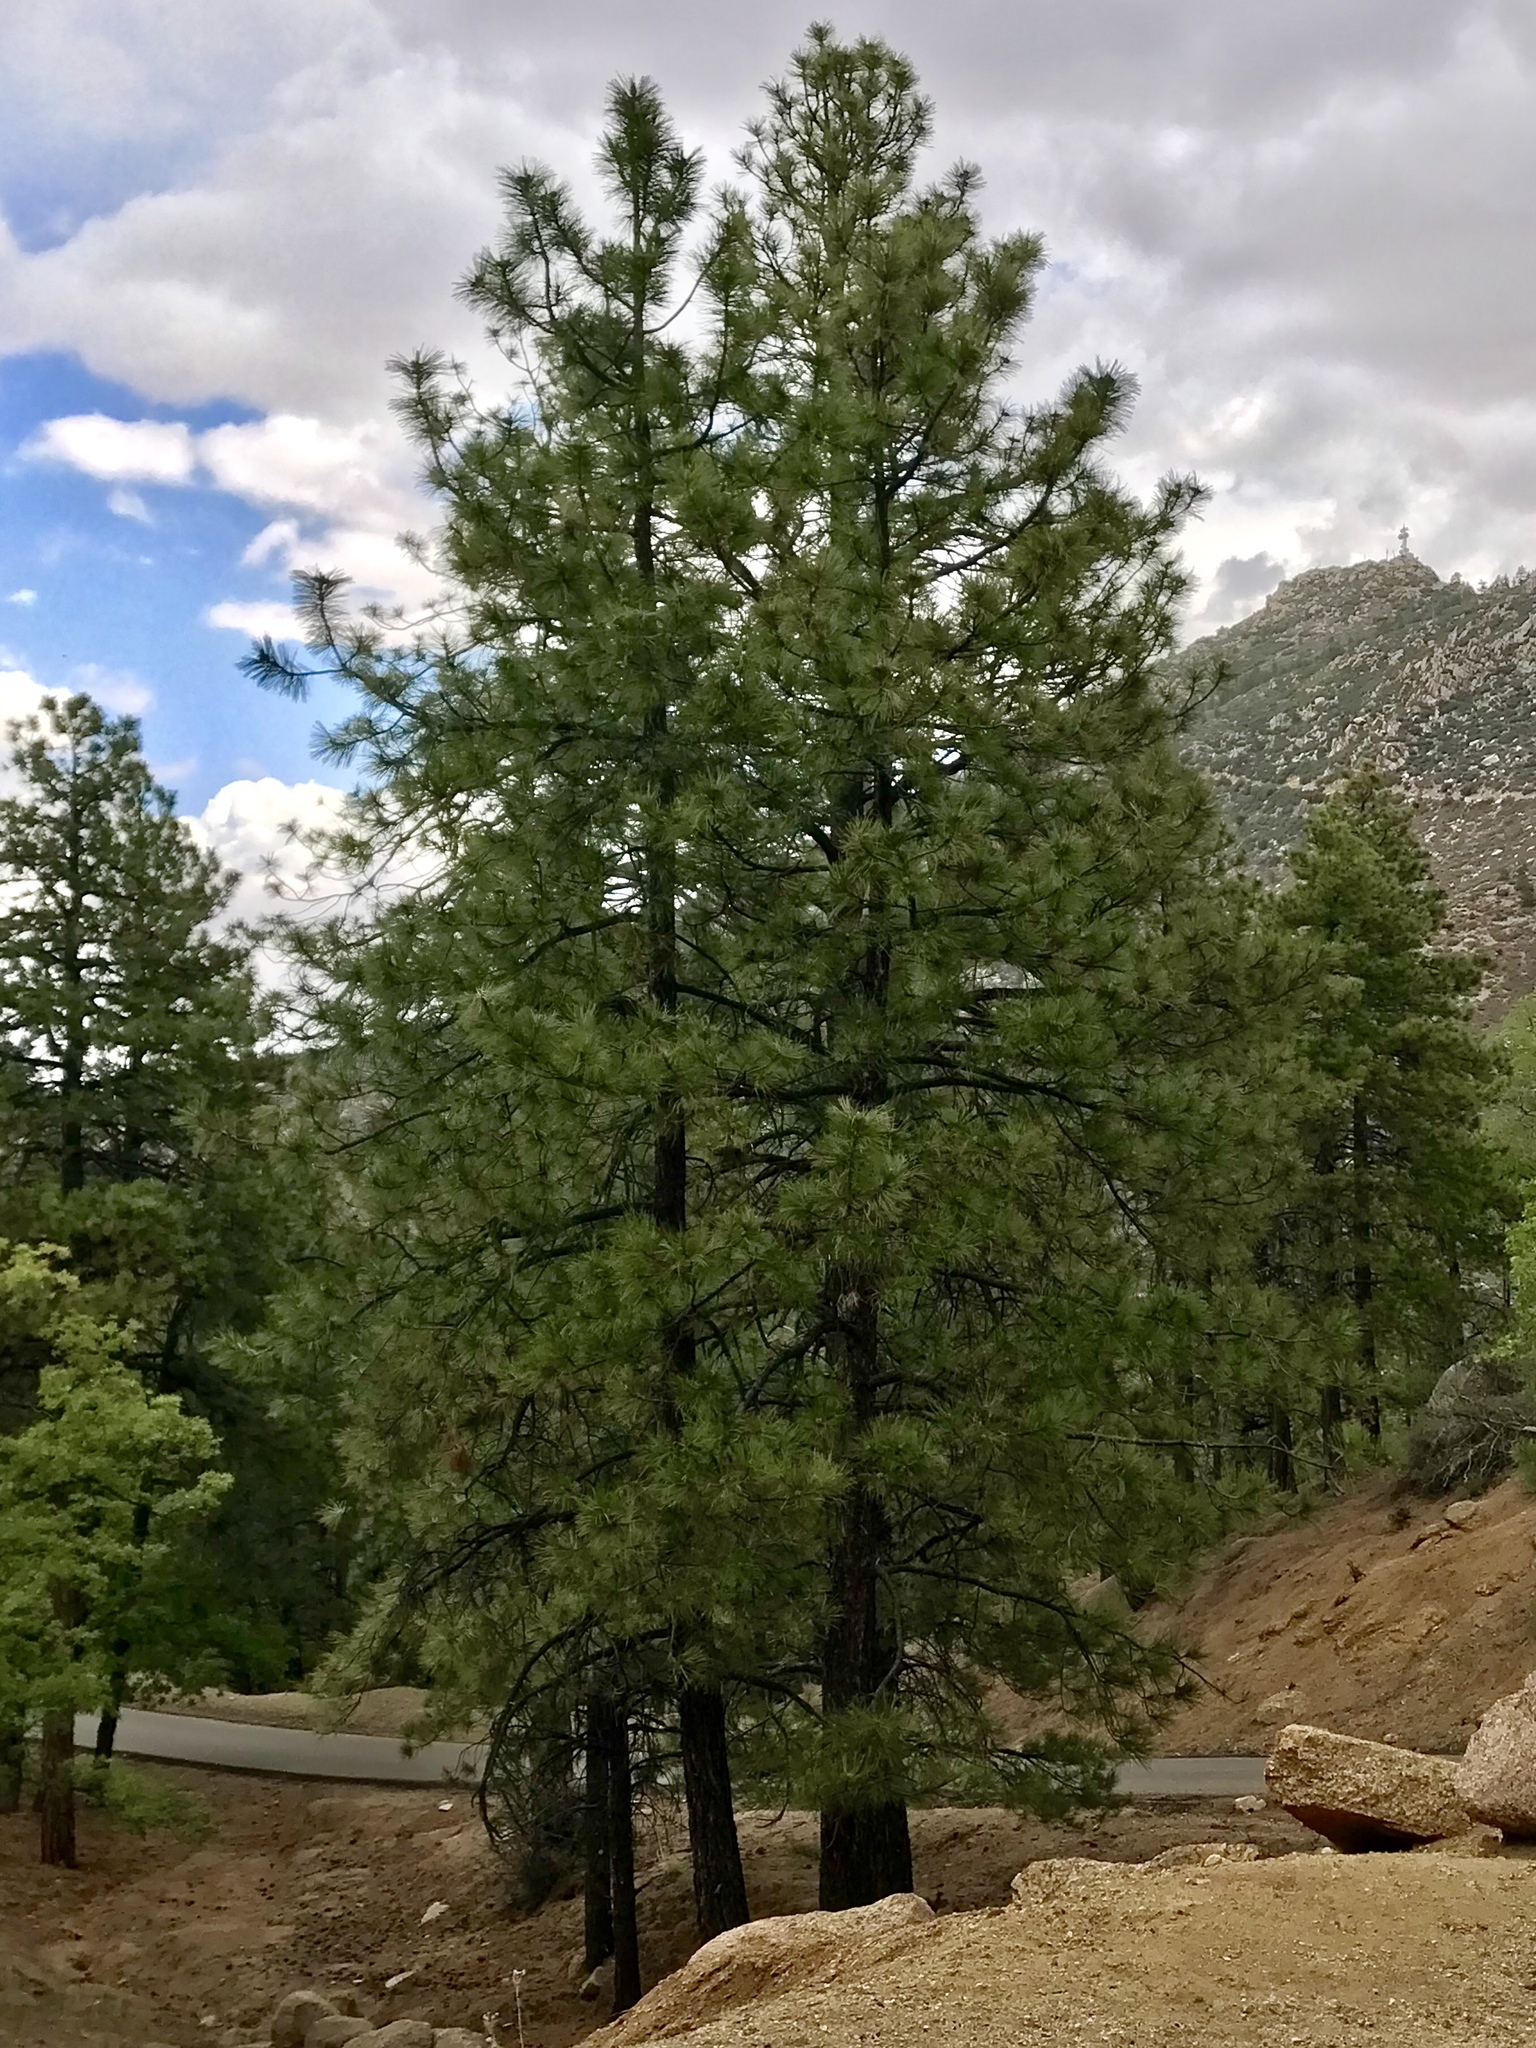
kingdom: Plantae
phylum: Tracheophyta
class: Pinopsida
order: Pinales
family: Pinaceae
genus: Pinus
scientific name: Pinus ponderosa
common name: Western yellow-pine
